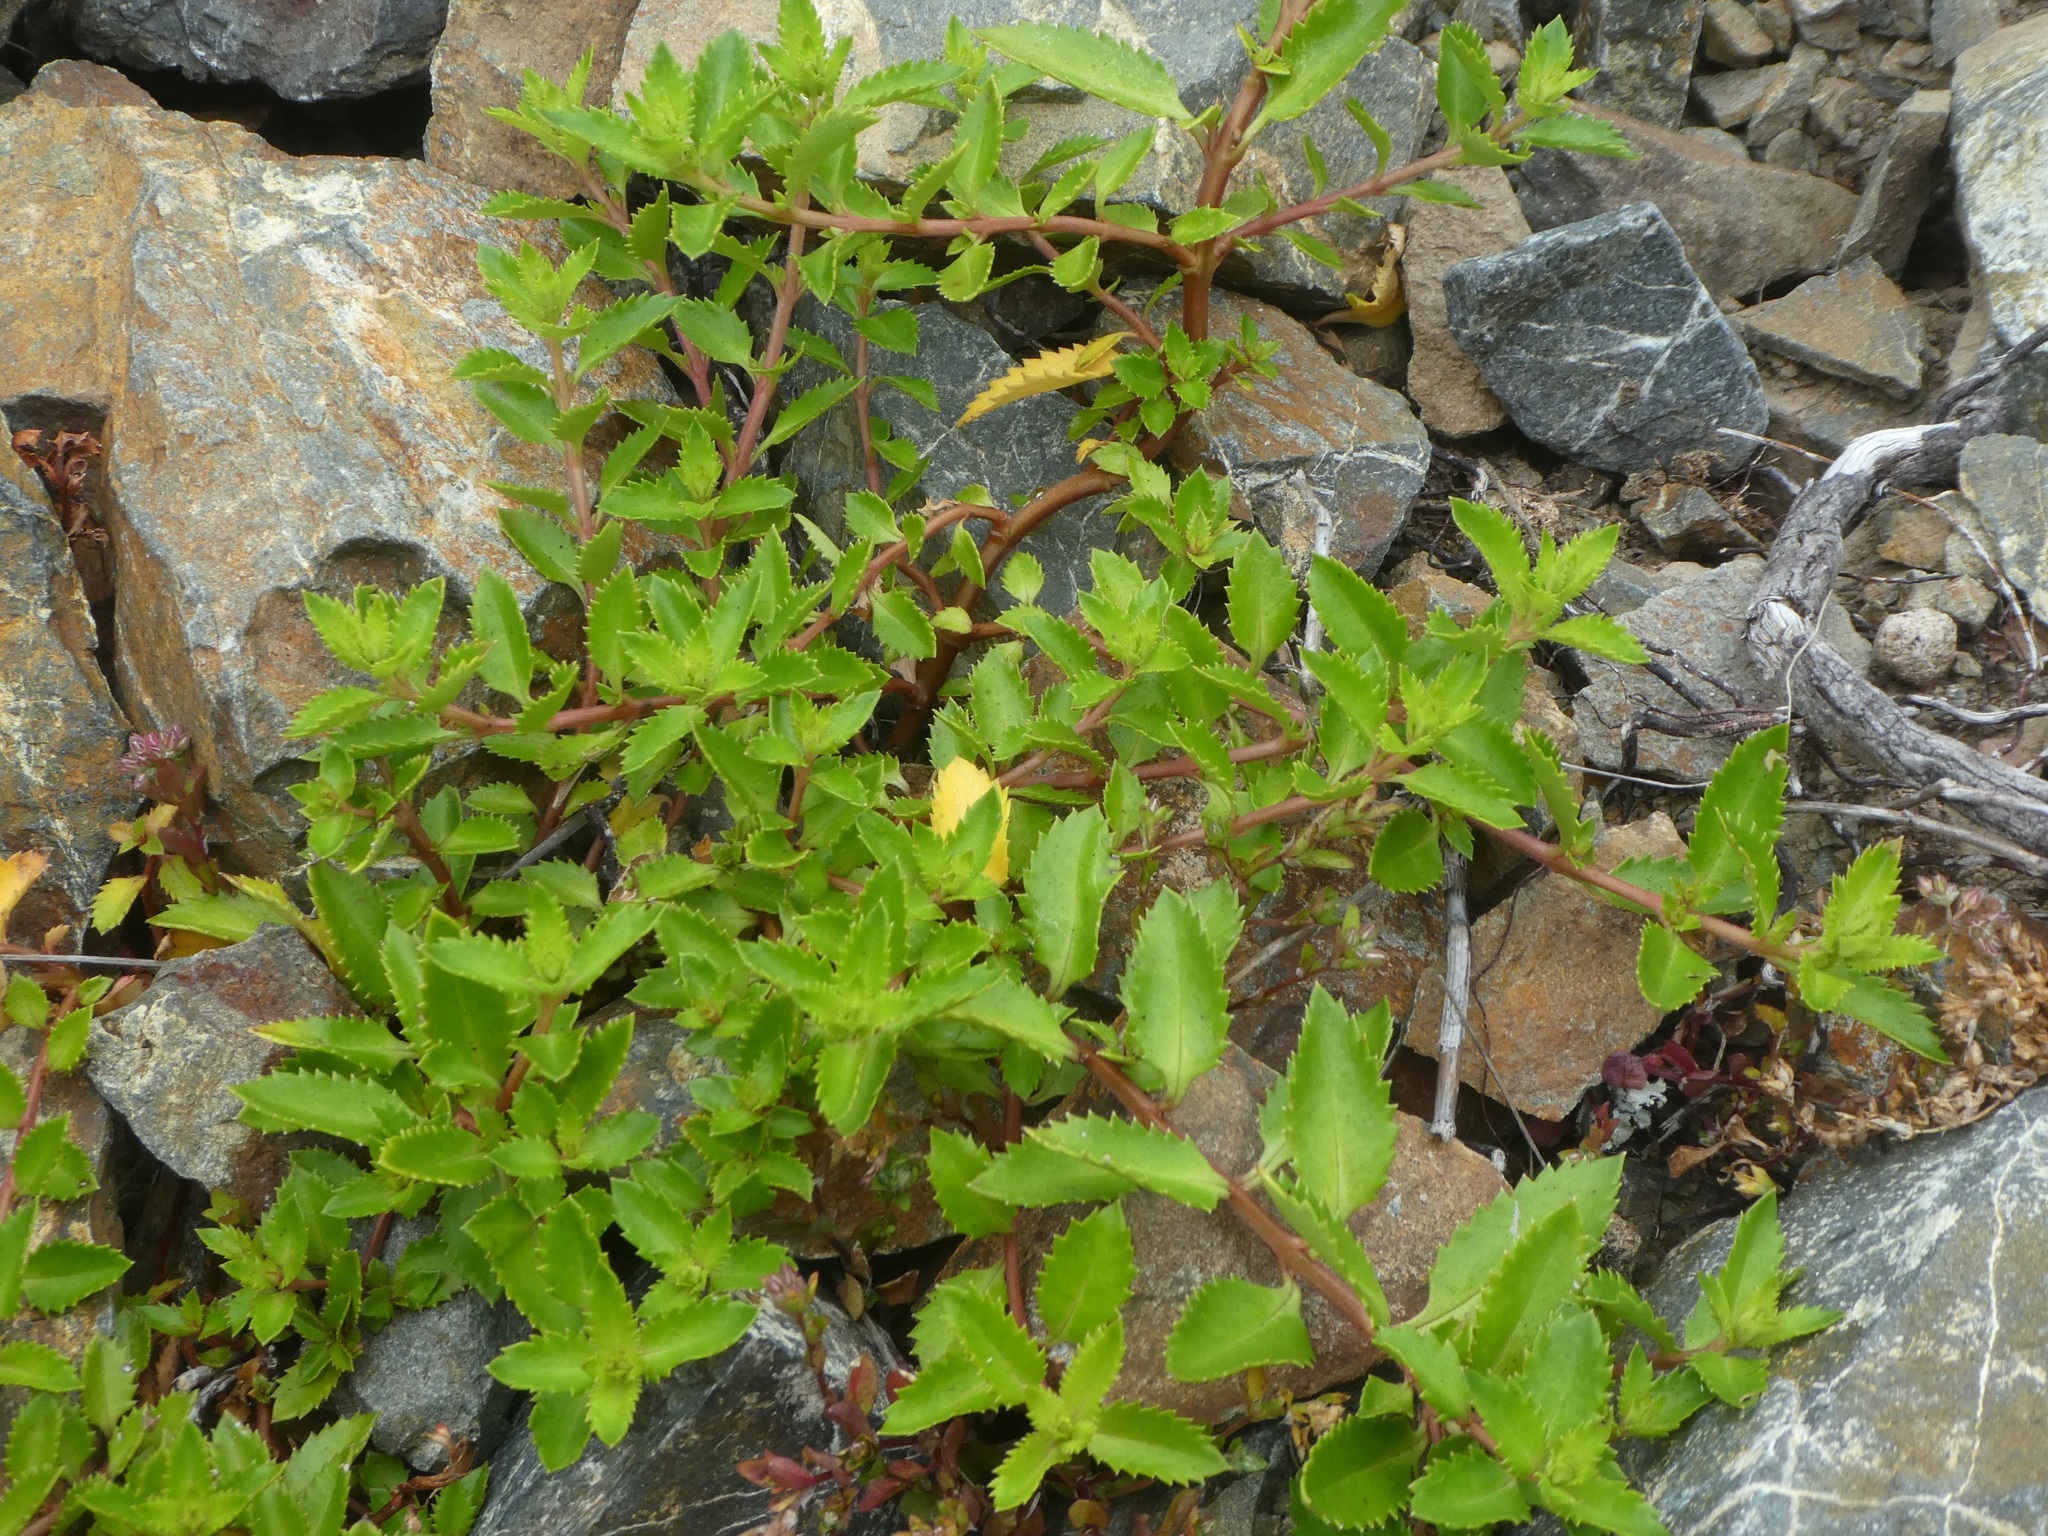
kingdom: Plantae
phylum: Tracheophyta
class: Magnoliopsida
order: Saxifragales
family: Haloragaceae
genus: Haloragis
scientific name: Haloragis erecta
